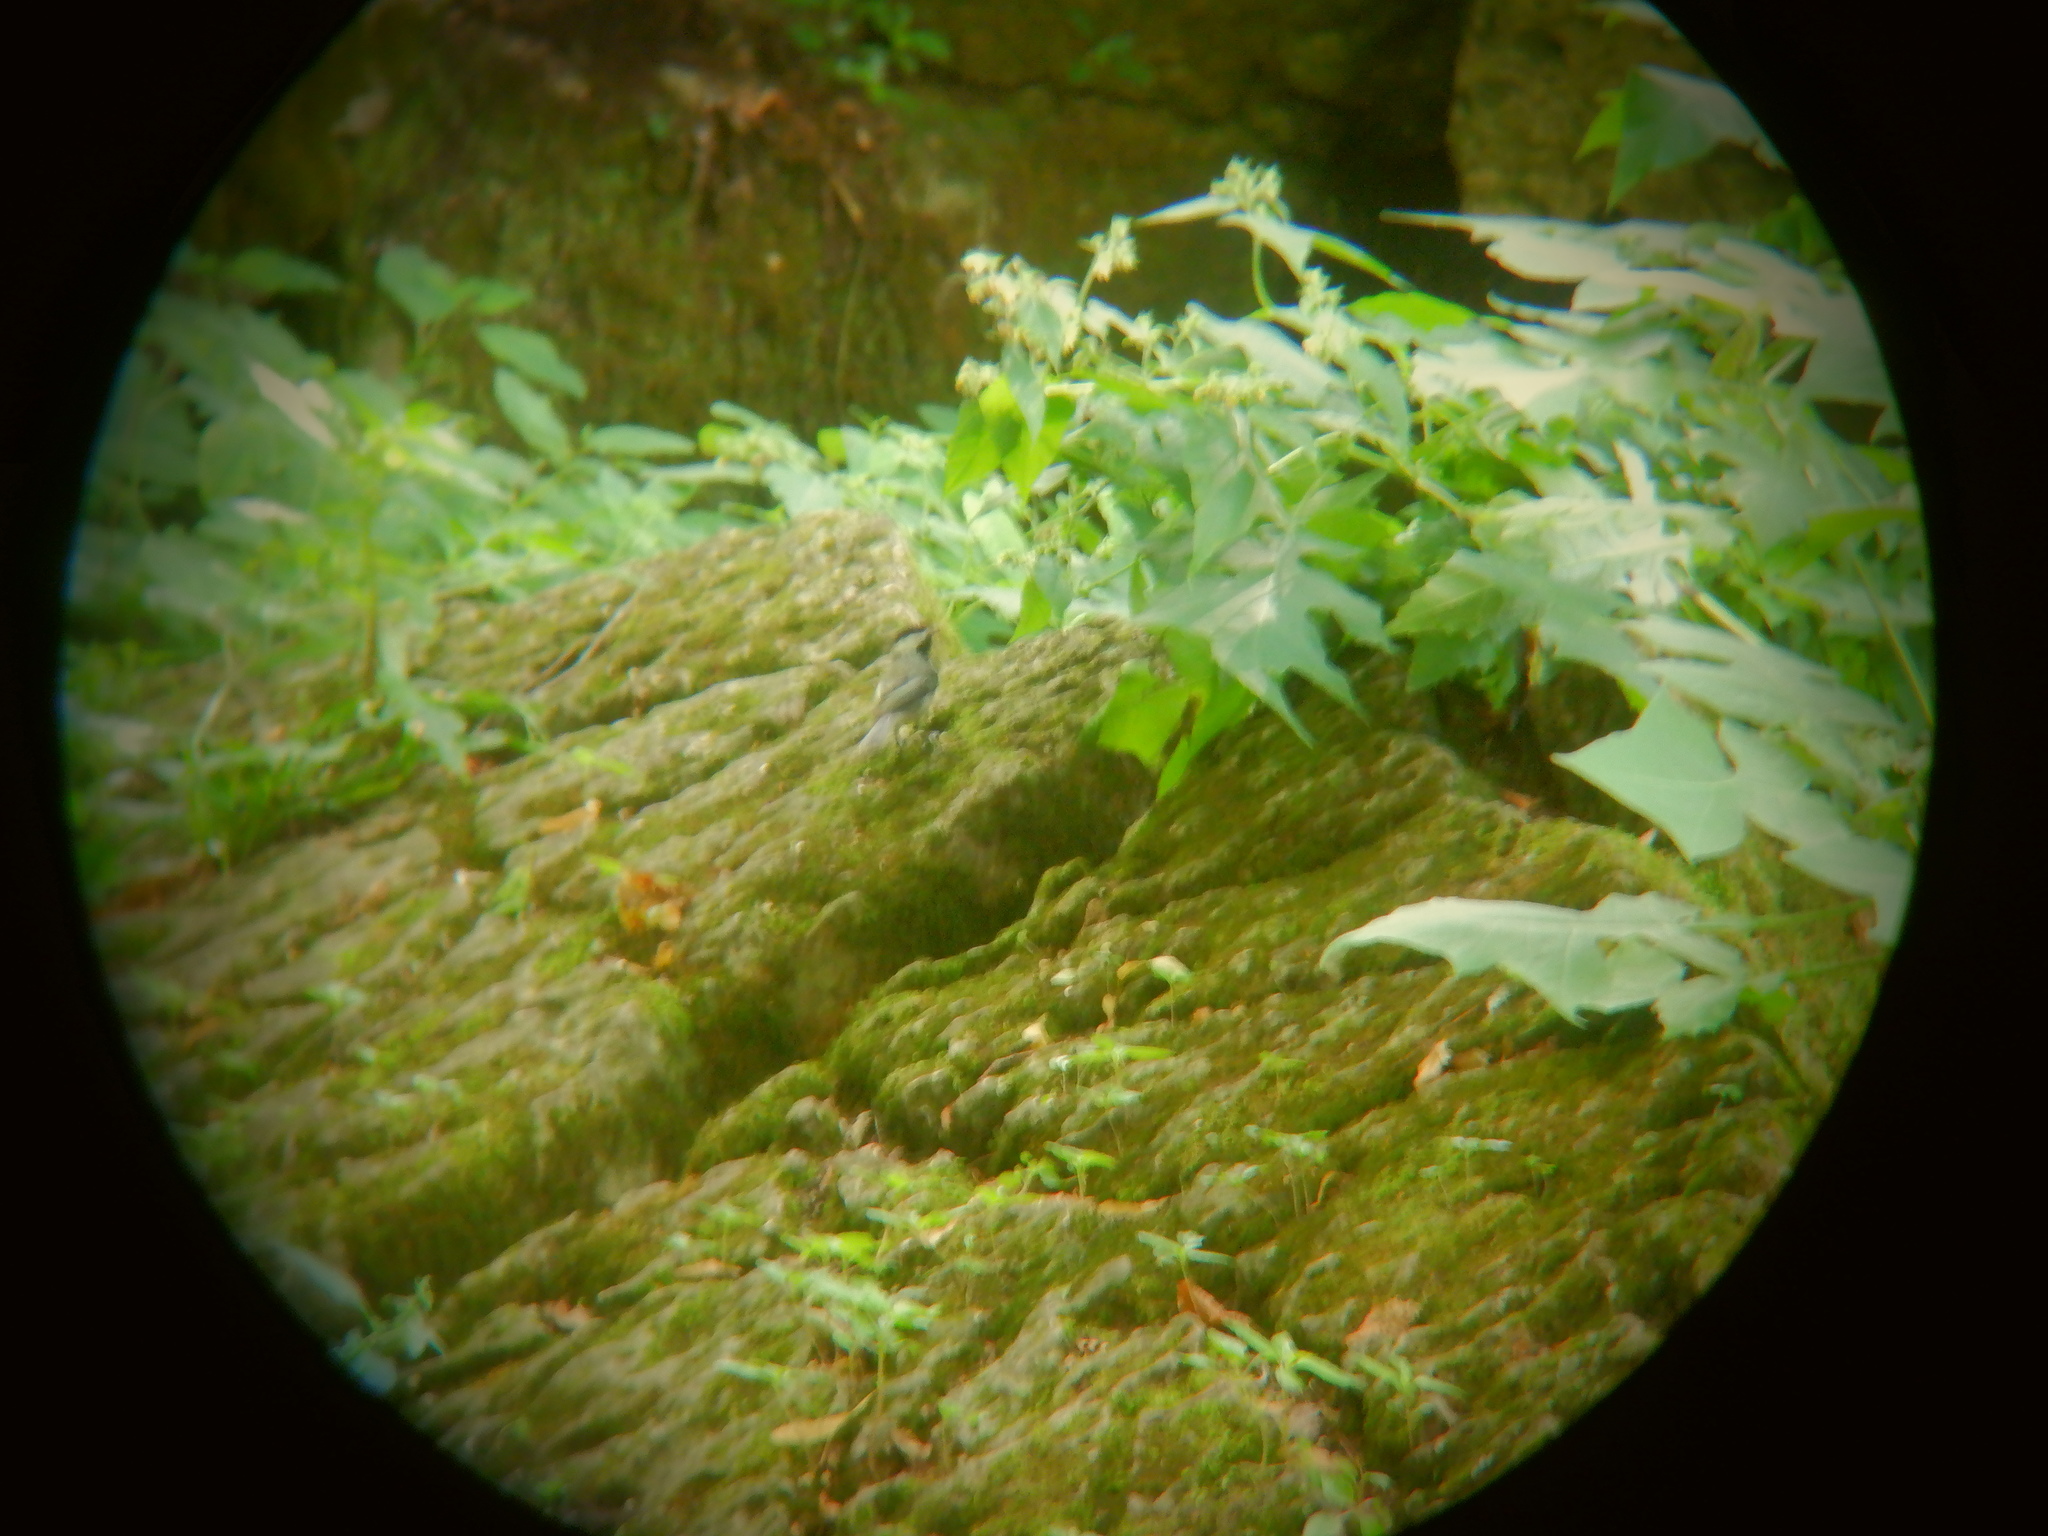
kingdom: Animalia
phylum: Chordata
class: Aves
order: Passeriformes
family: Paridae
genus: Poecile
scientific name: Poecile atricapillus
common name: Black-capped chickadee
